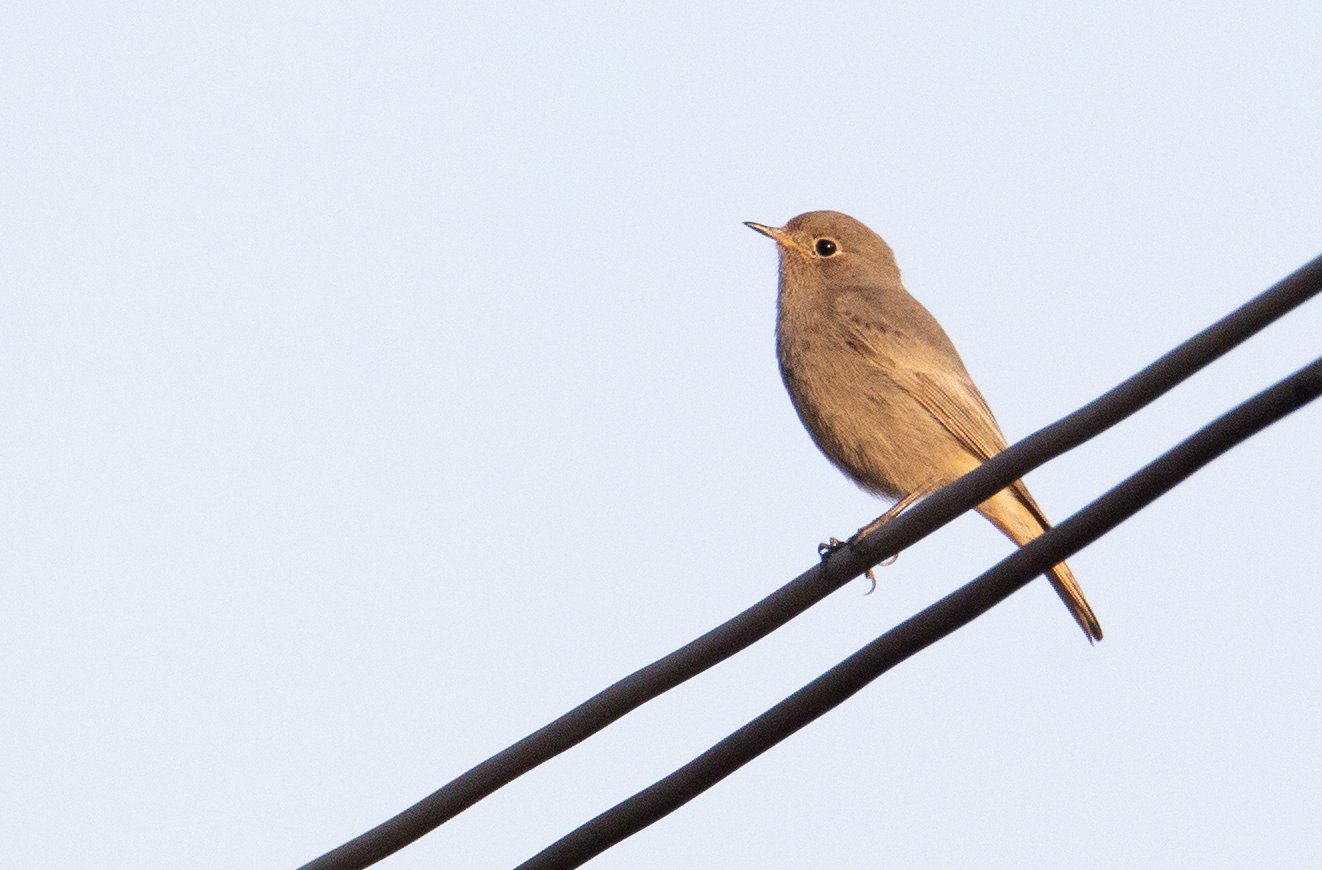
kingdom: Animalia
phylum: Chordata
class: Aves
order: Passeriformes
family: Muscicapidae
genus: Phoenicurus
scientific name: Phoenicurus ochruros
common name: Black redstart
